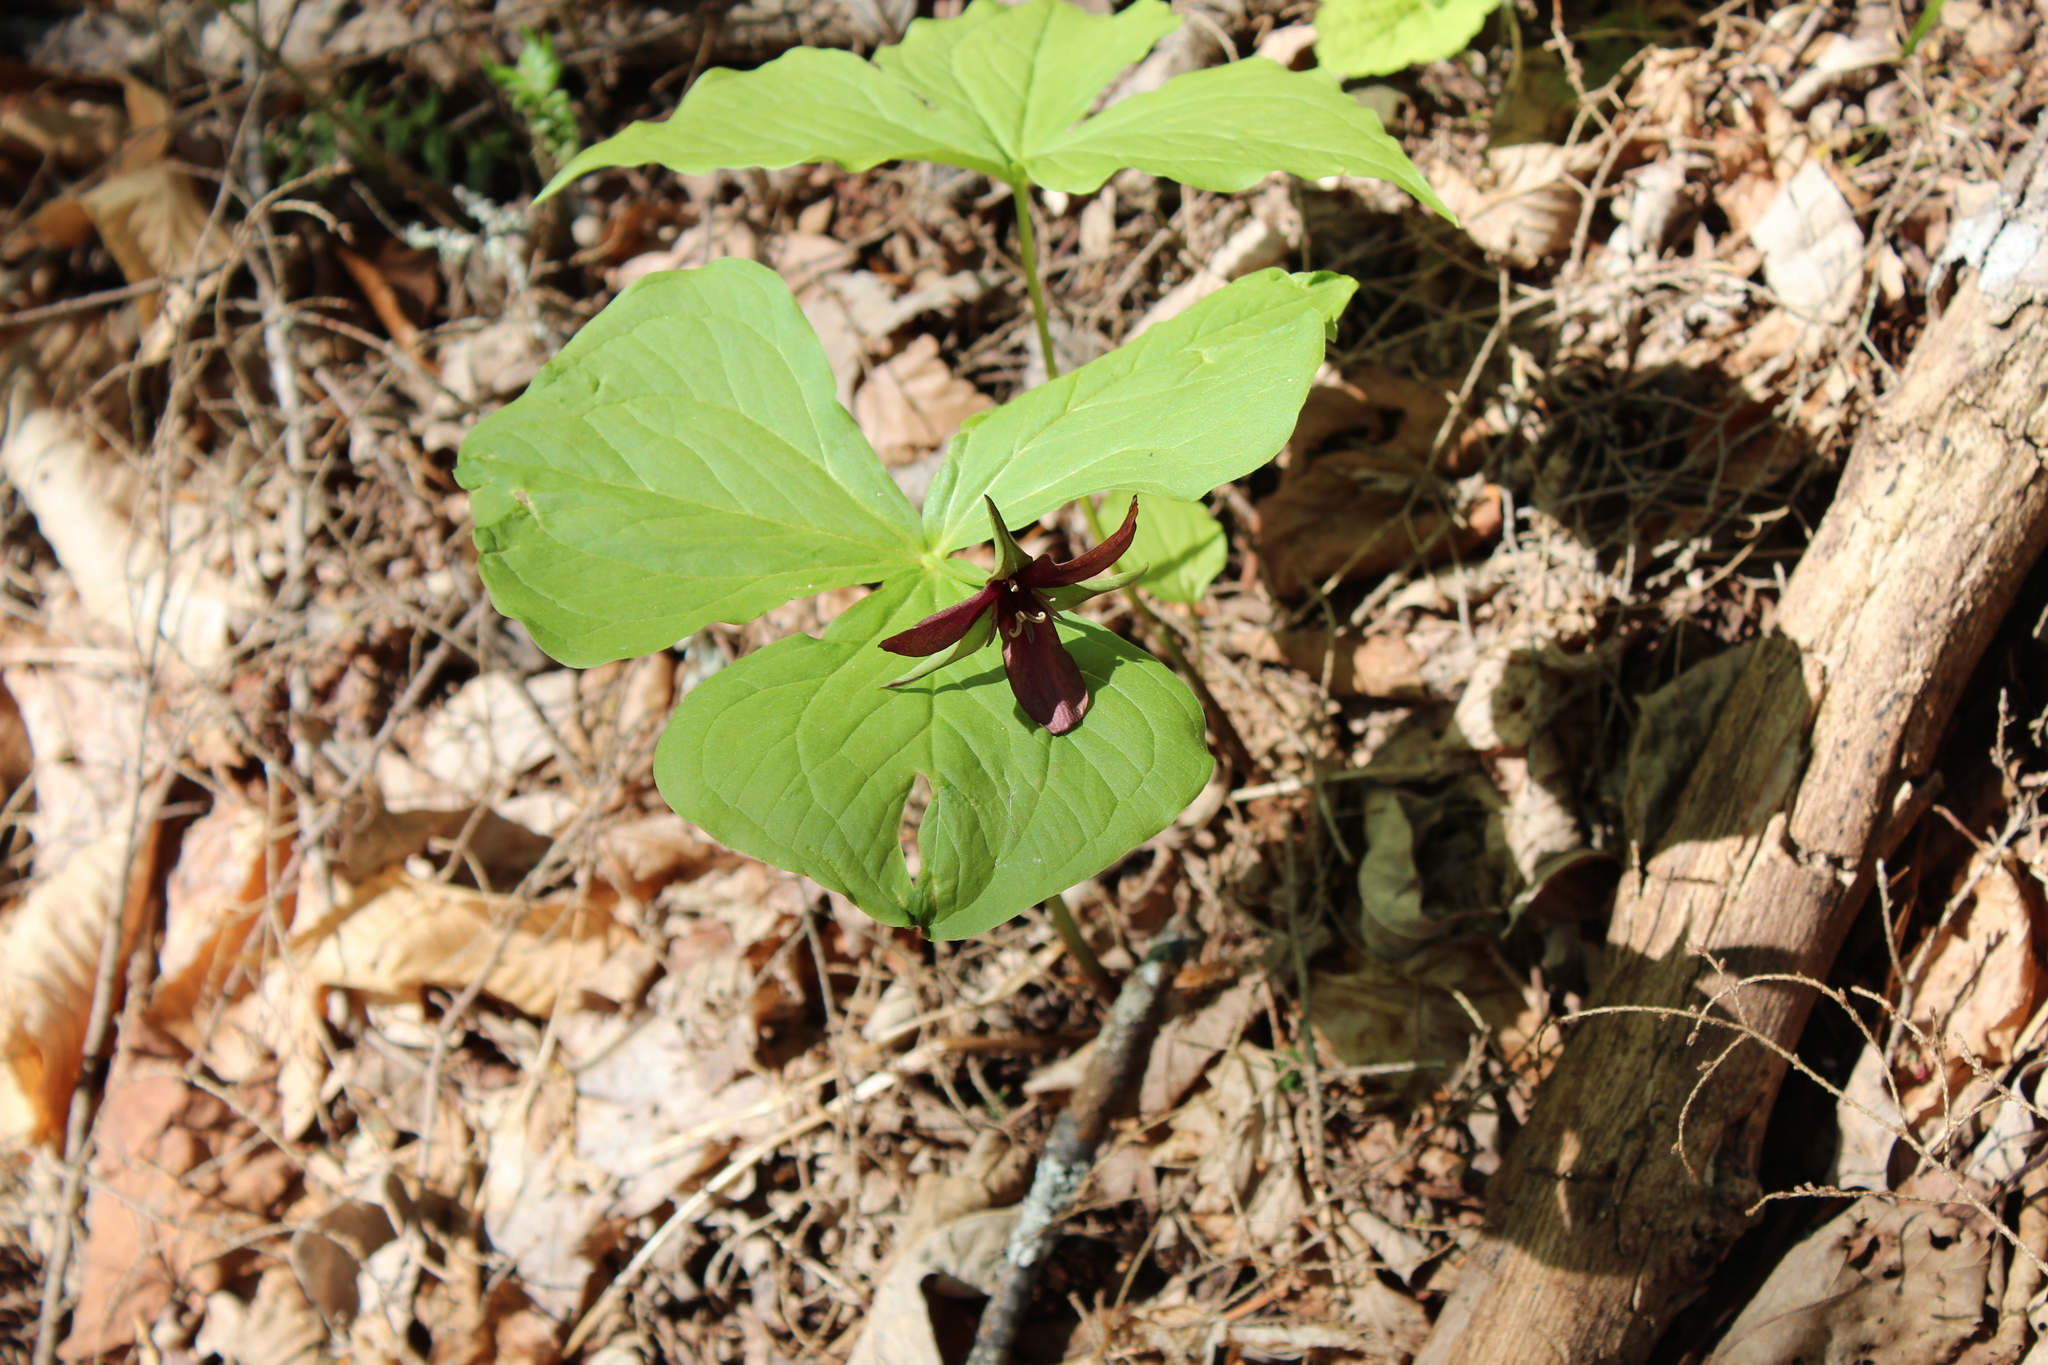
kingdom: Plantae
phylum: Tracheophyta
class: Liliopsida
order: Liliales
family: Melanthiaceae
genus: Trillium
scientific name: Trillium erectum
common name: Purple trillium
